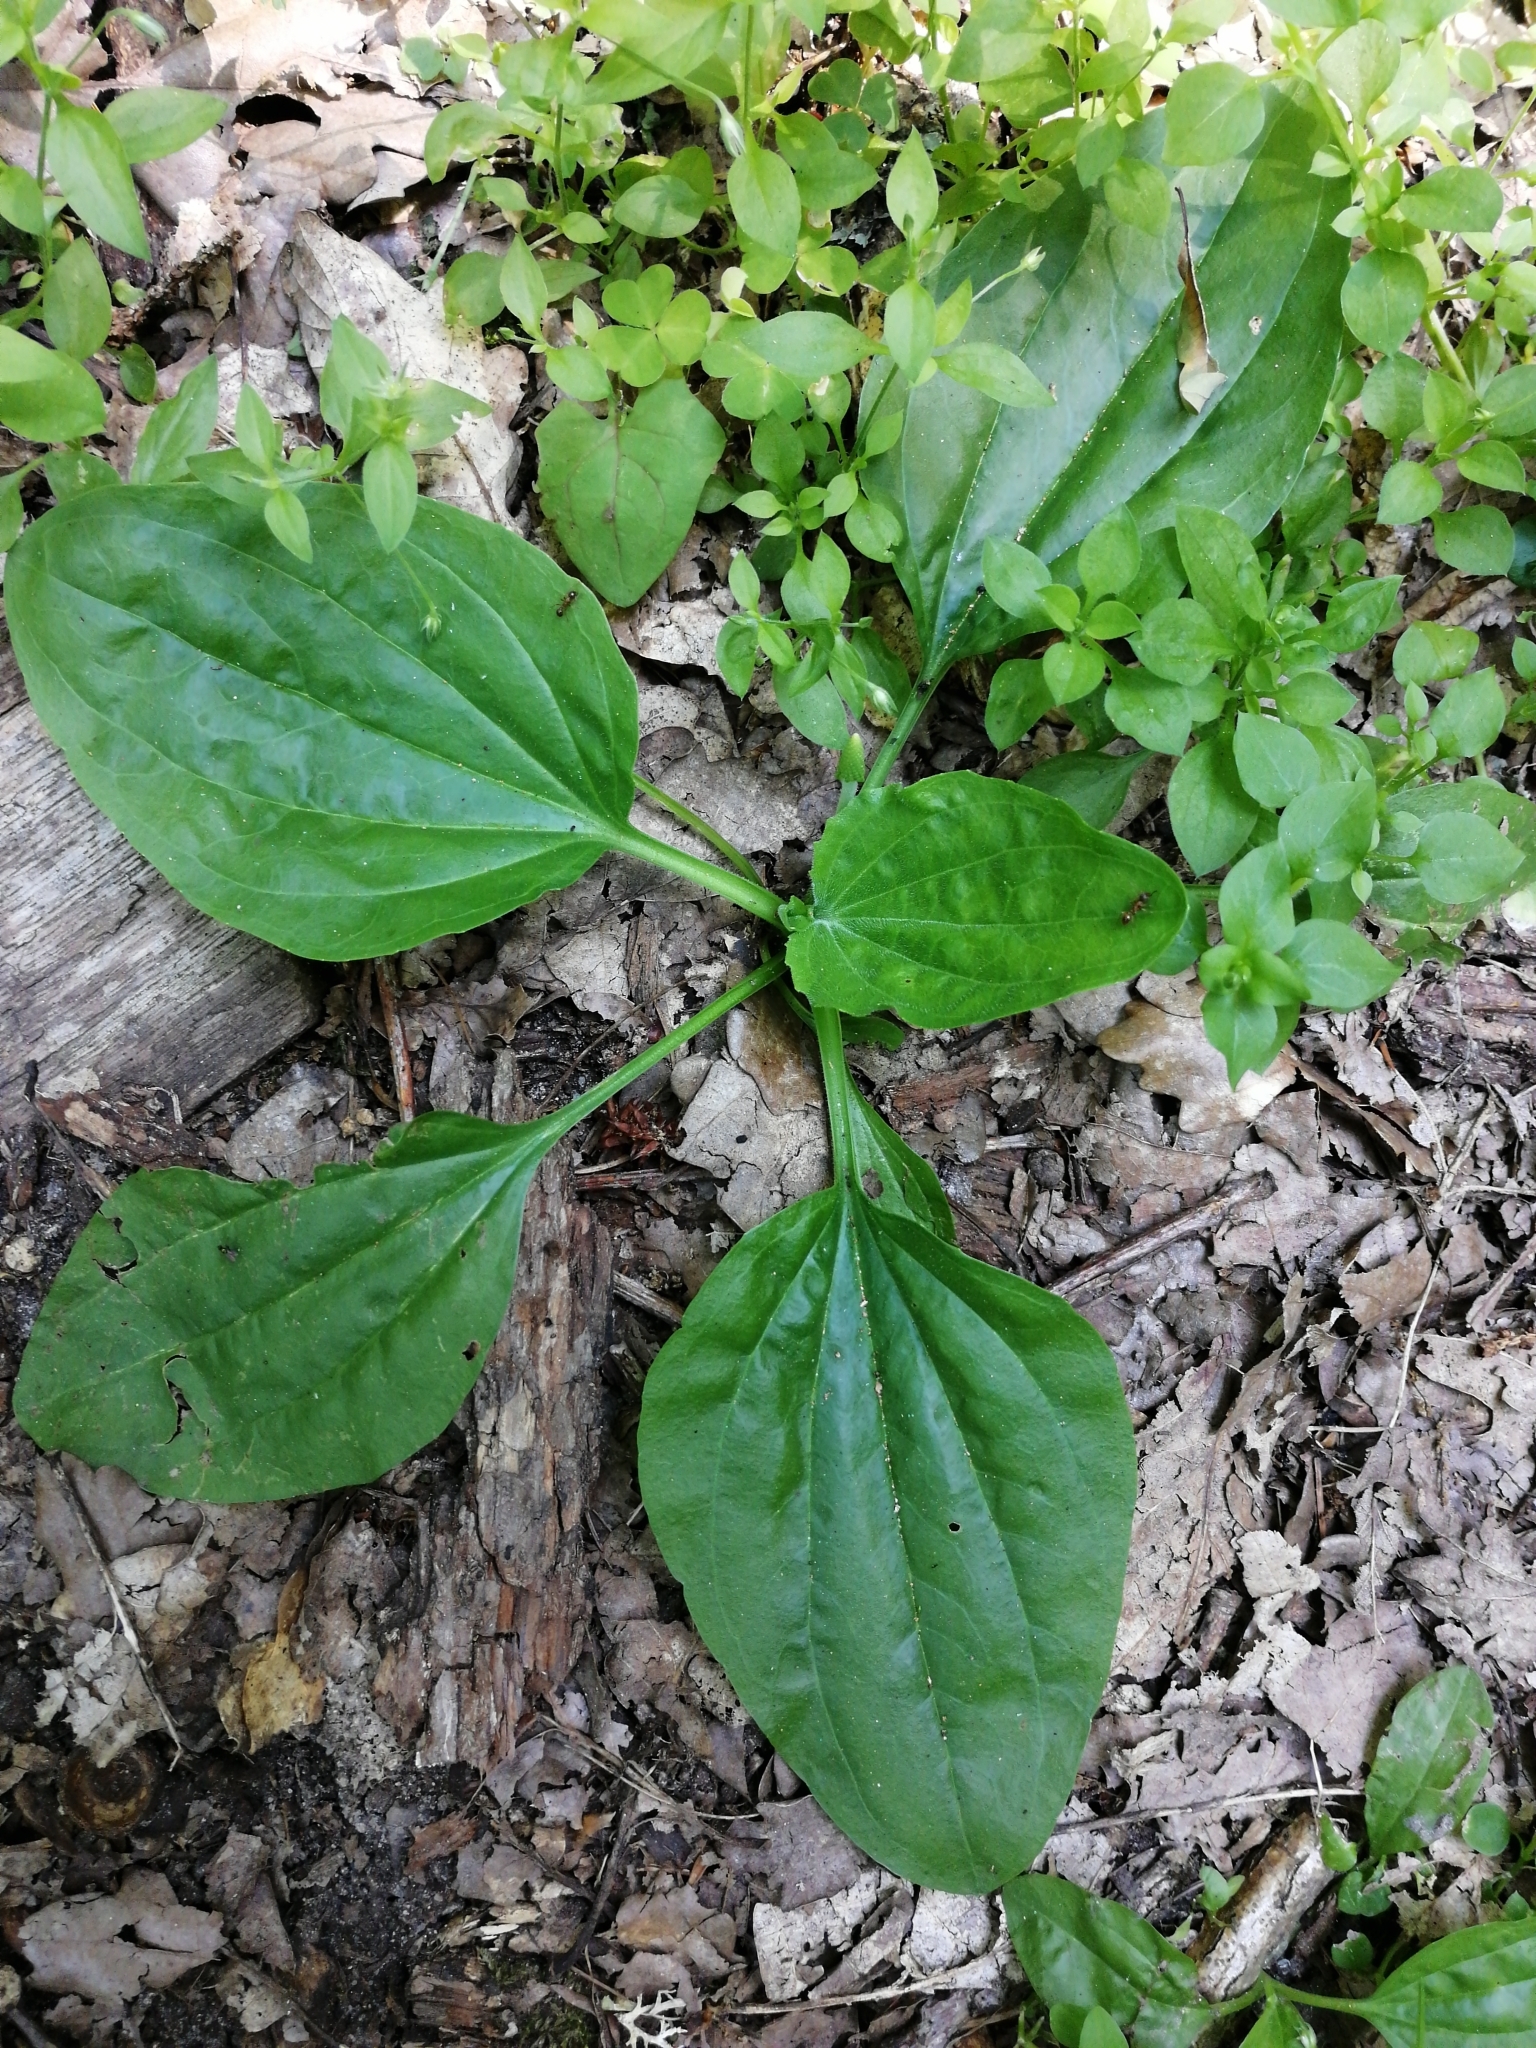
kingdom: Plantae
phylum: Tracheophyta
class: Magnoliopsida
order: Lamiales
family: Plantaginaceae
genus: Plantago
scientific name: Plantago major
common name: Common plantain
